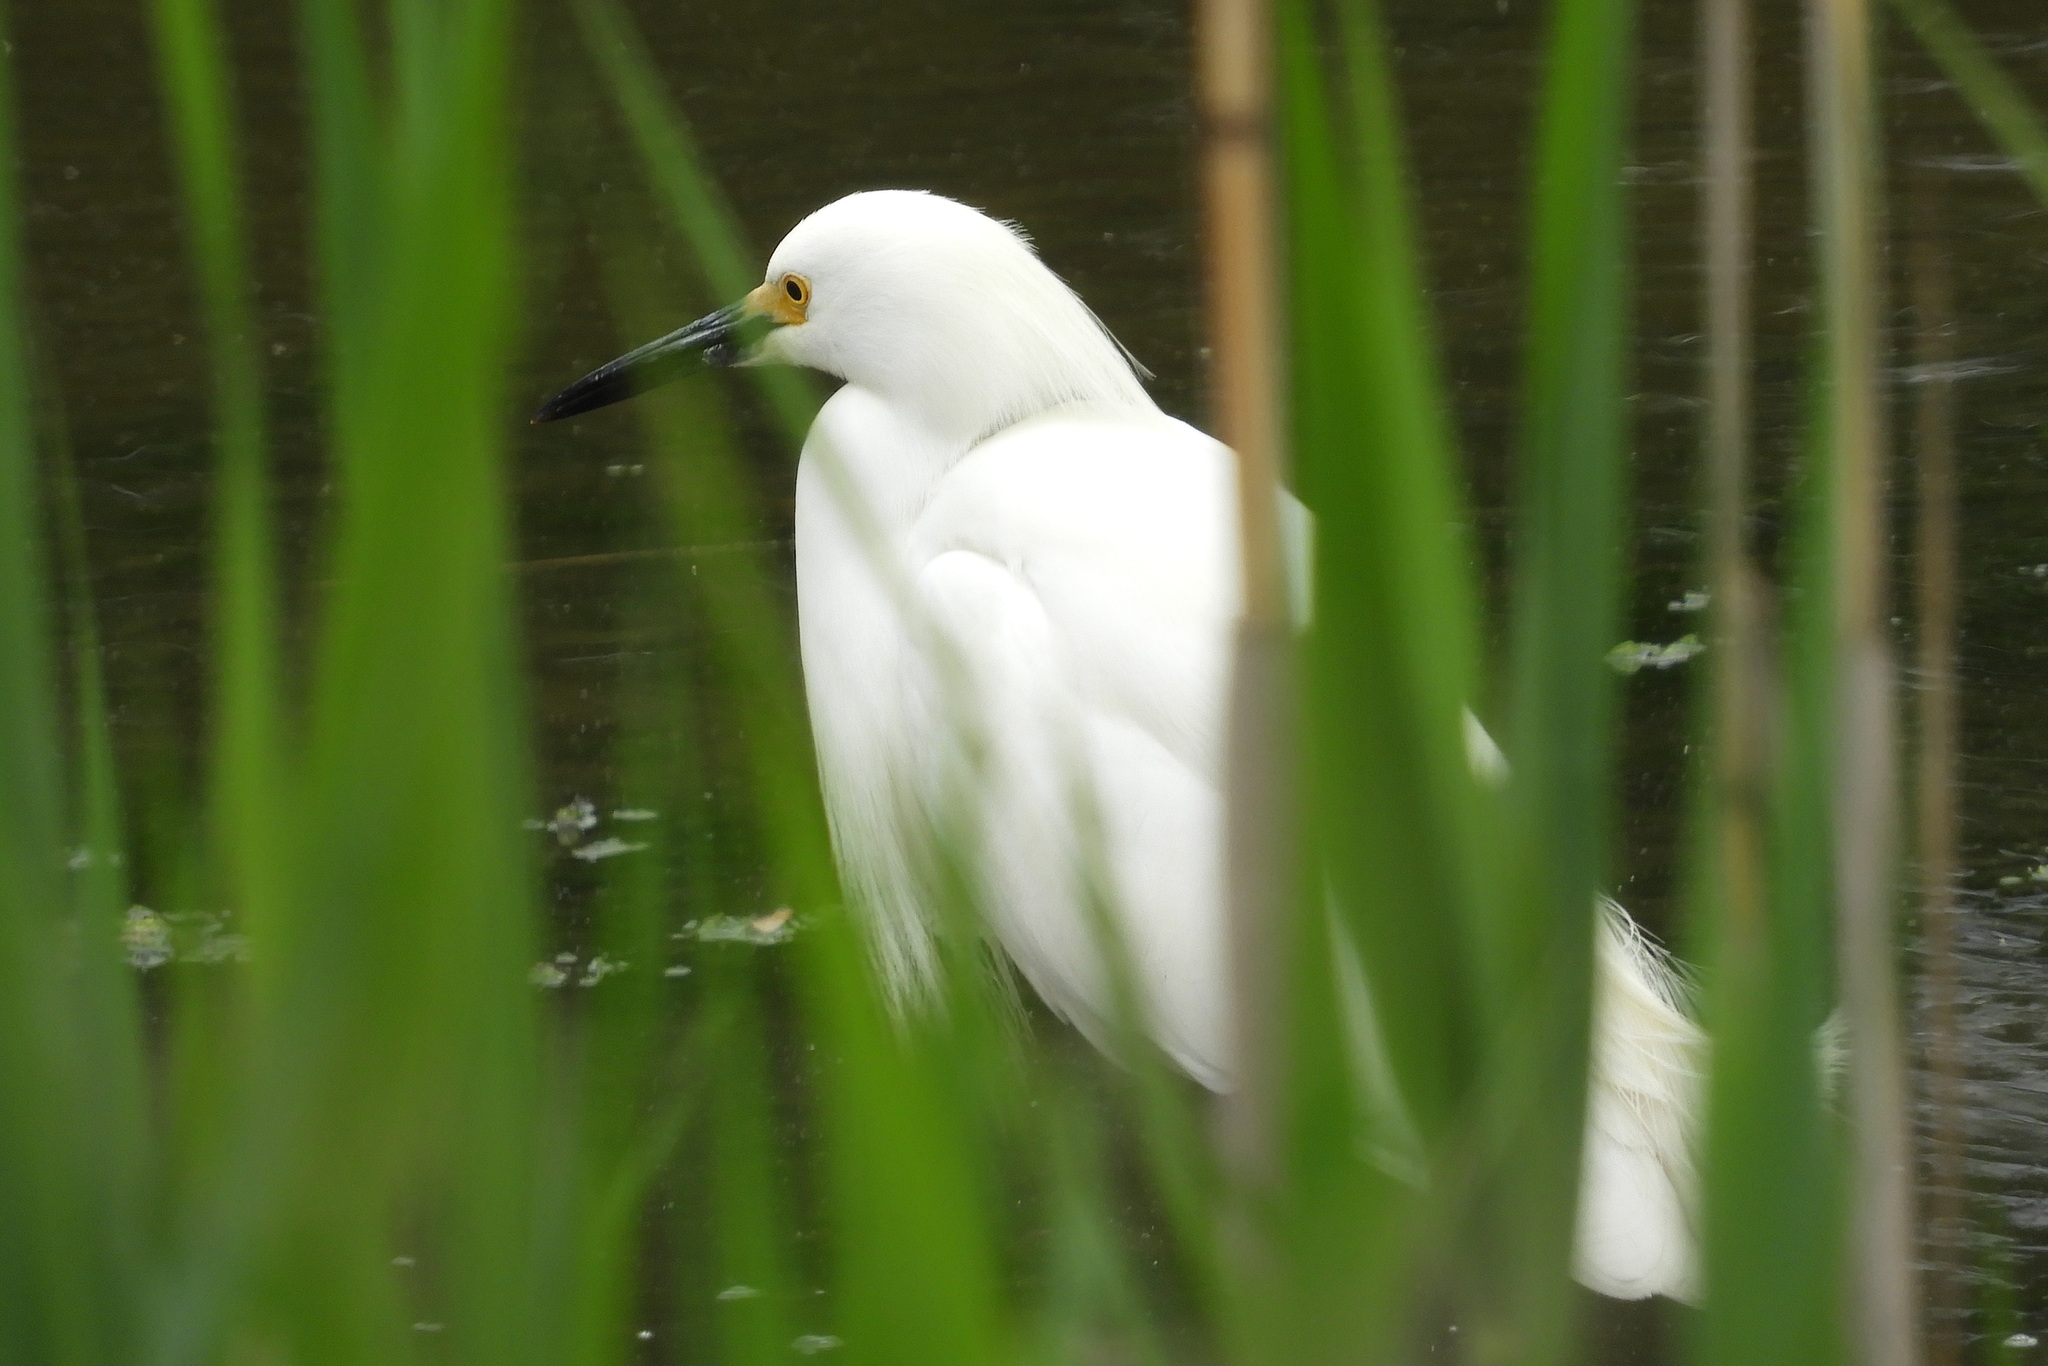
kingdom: Animalia
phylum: Chordata
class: Aves
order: Pelecaniformes
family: Ardeidae
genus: Egretta
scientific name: Egretta thula
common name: Snowy egret
